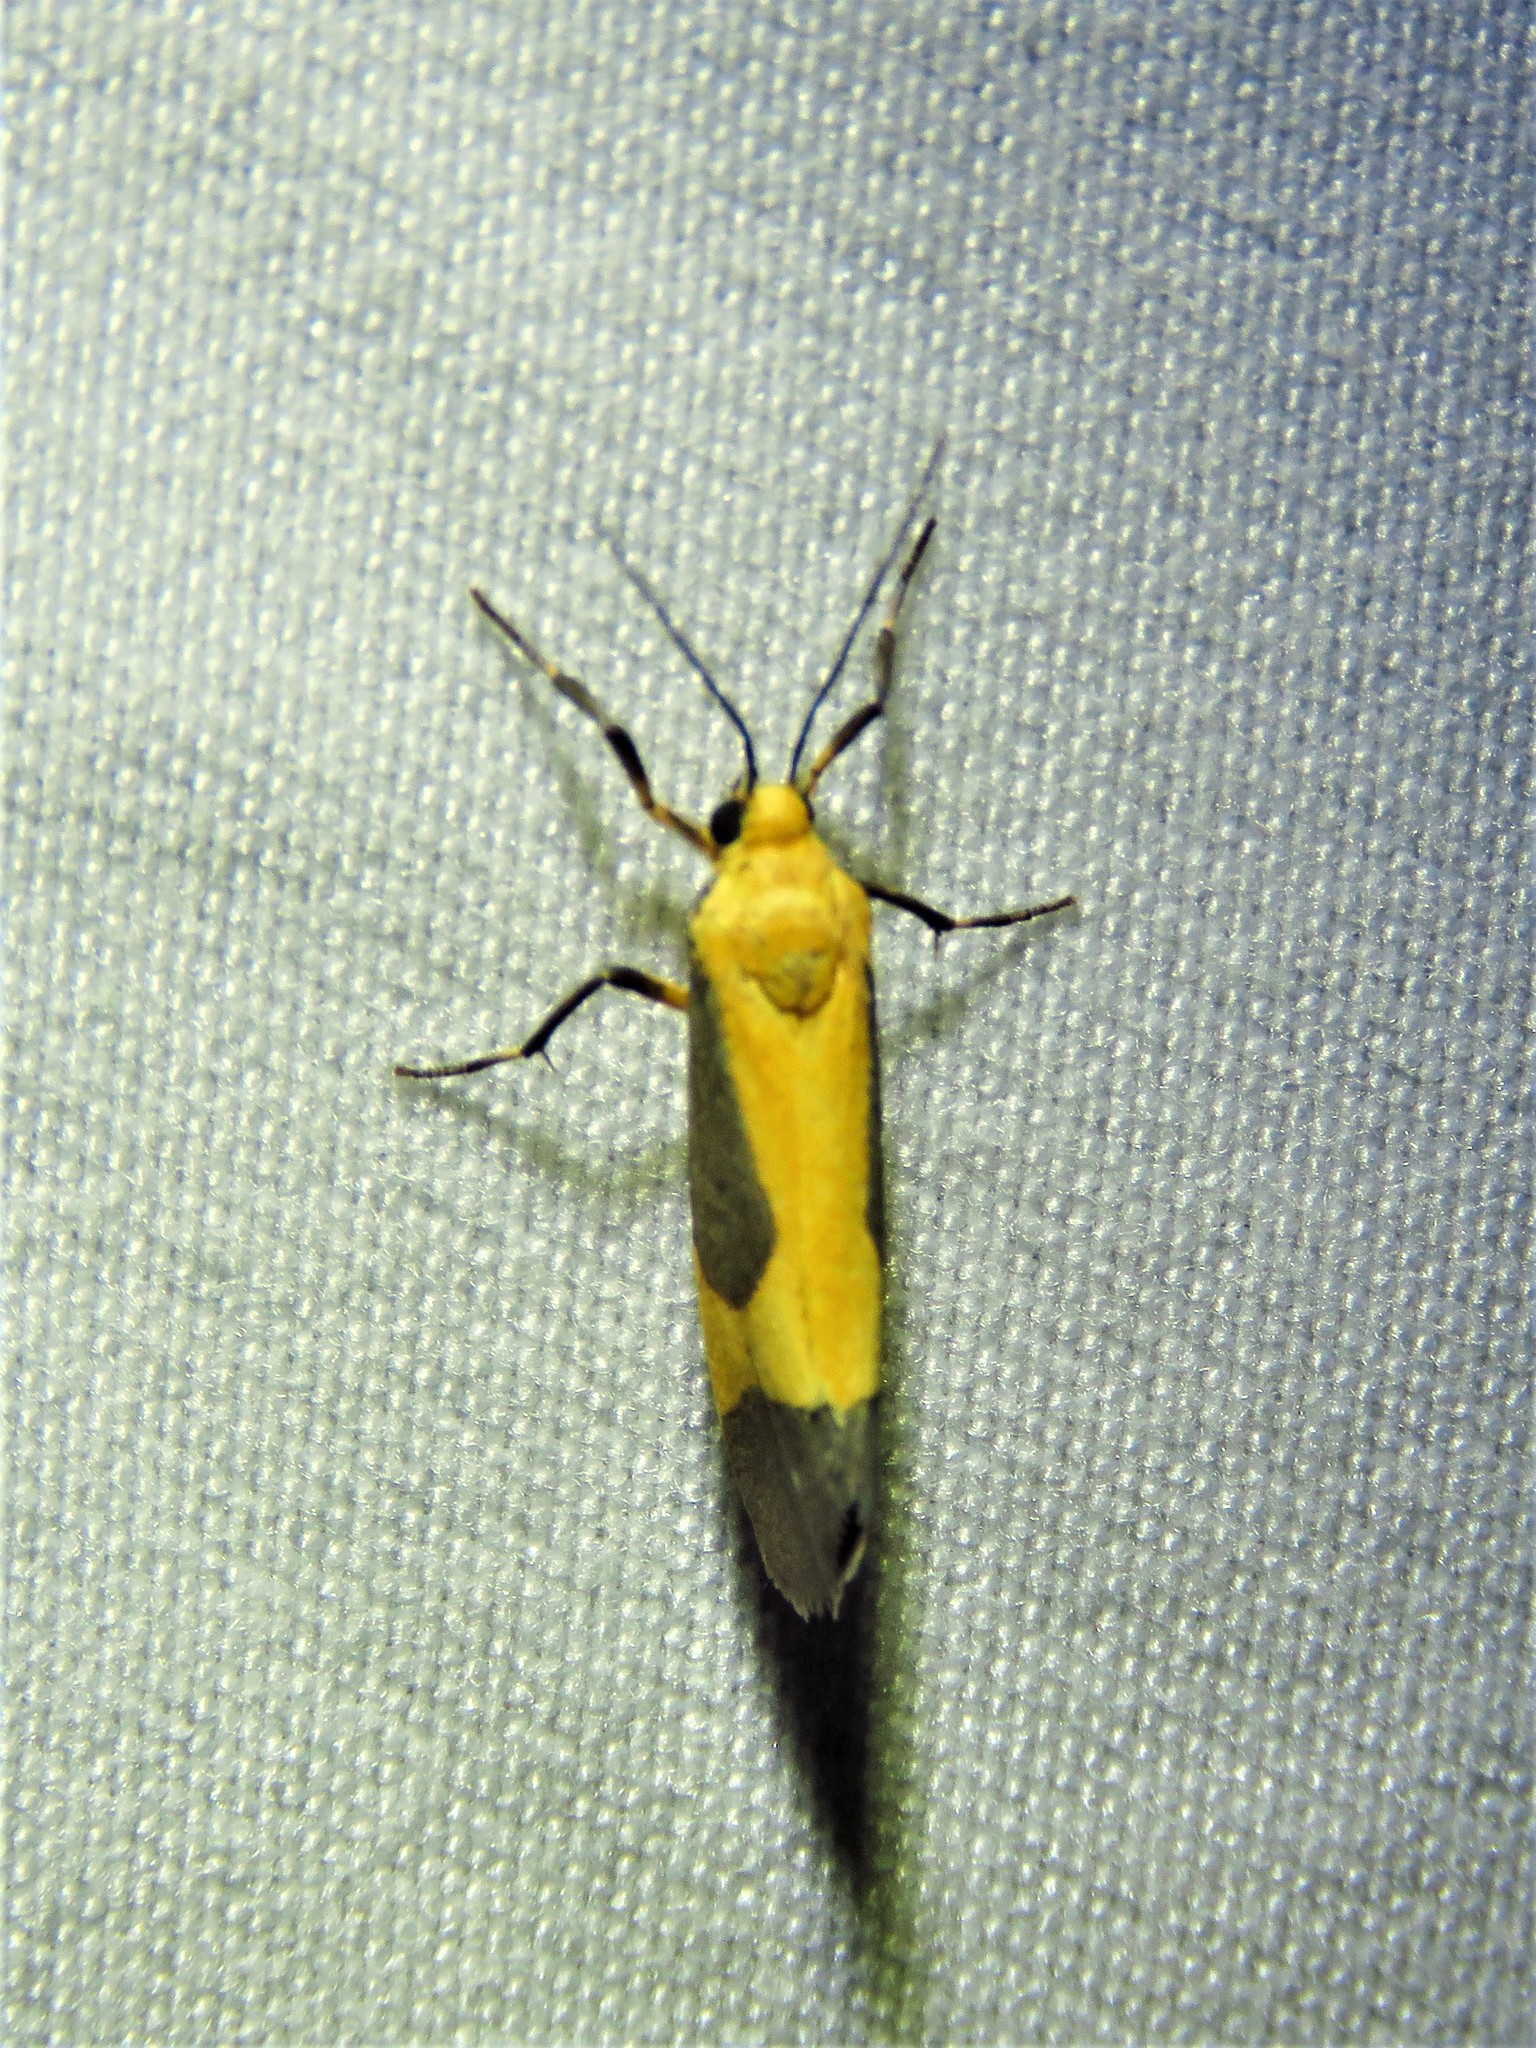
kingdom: Animalia
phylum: Arthropoda
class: Insecta
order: Lepidoptera
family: Erebidae
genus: Cisthene
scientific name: Cisthene picta
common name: Pictured lichen moth
